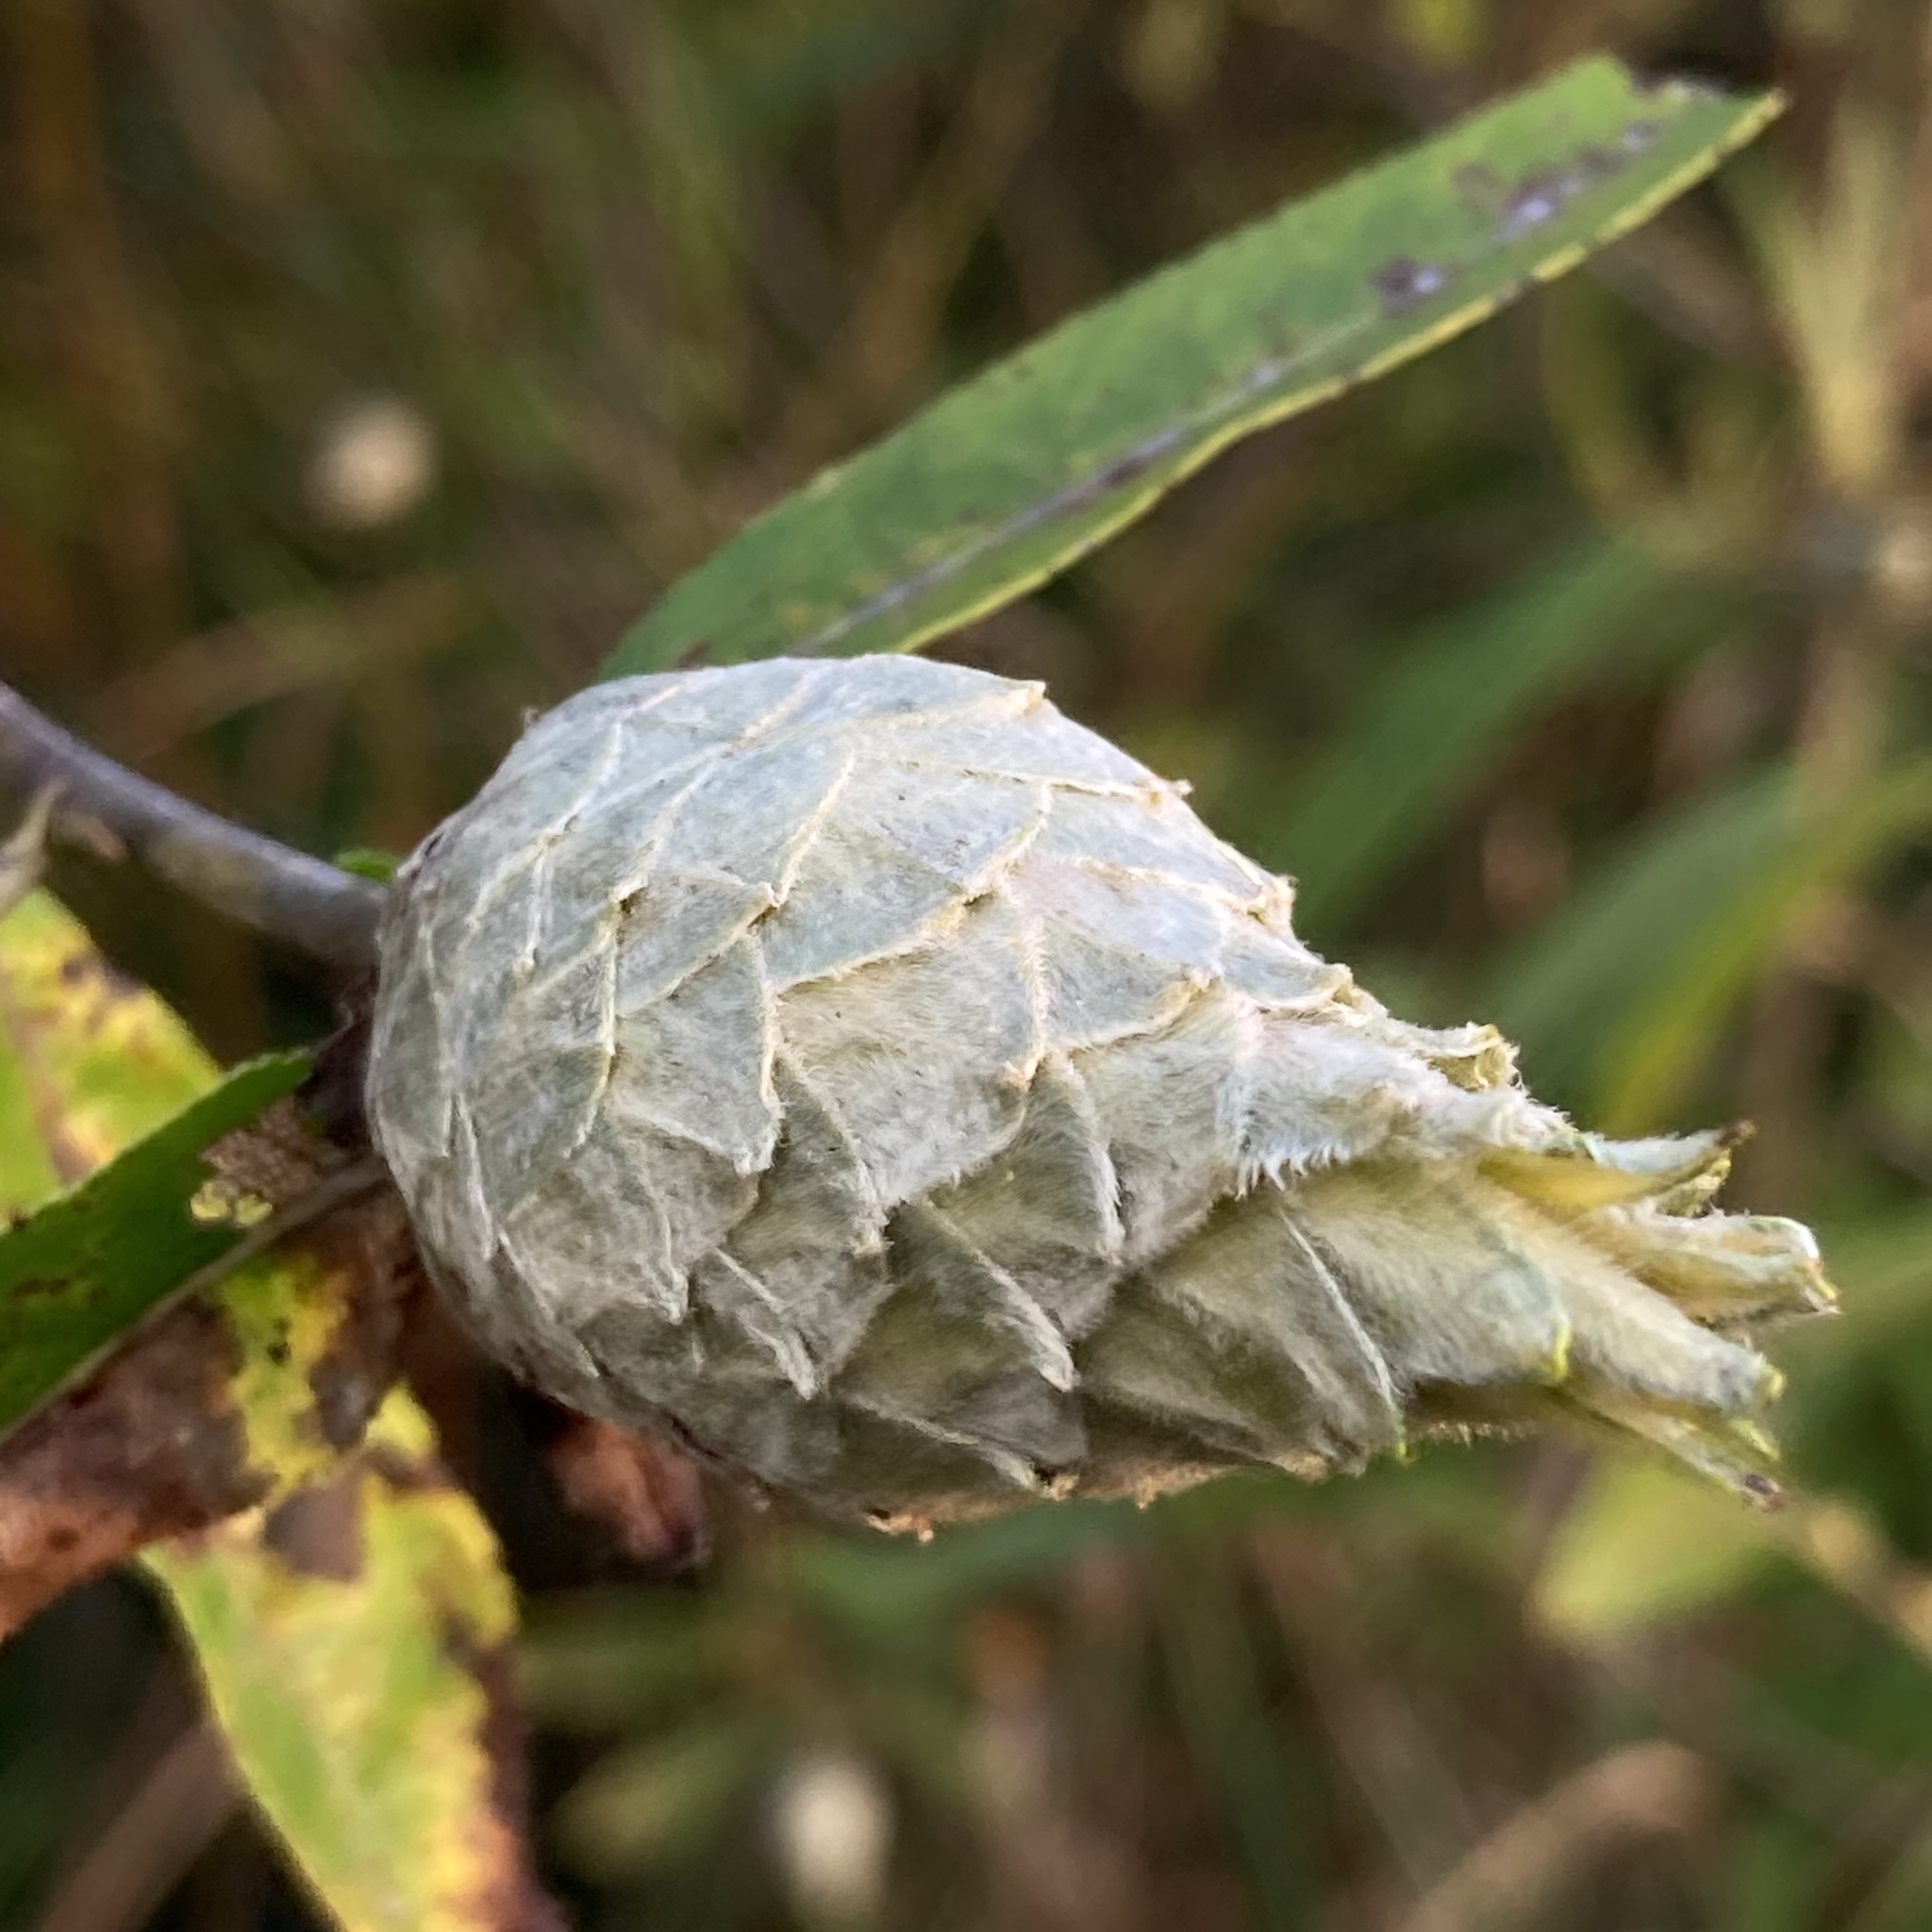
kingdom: Animalia
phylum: Arthropoda
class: Insecta
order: Diptera
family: Cecidomyiidae
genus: Rabdophaga
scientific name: Rabdophaga strobiloides
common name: Willow pinecone gall midge
